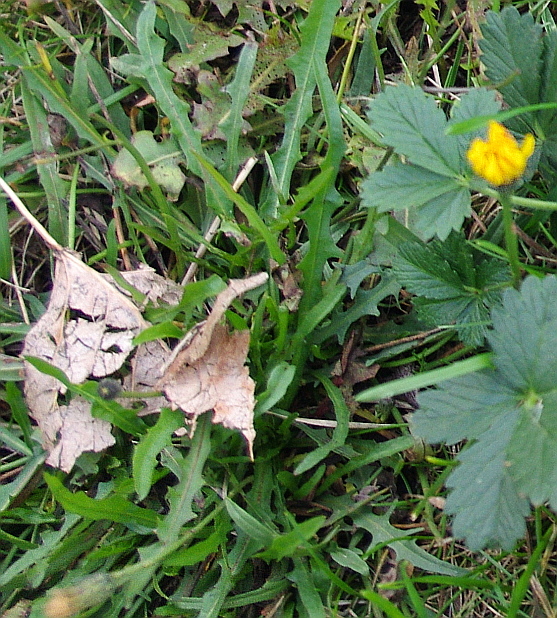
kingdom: Plantae
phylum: Tracheophyta
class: Magnoliopsida
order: Asterales
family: Asteraceae
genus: Scorzoneroides
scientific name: Scorzoneroides autumnalis
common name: Autumn hawkbit
